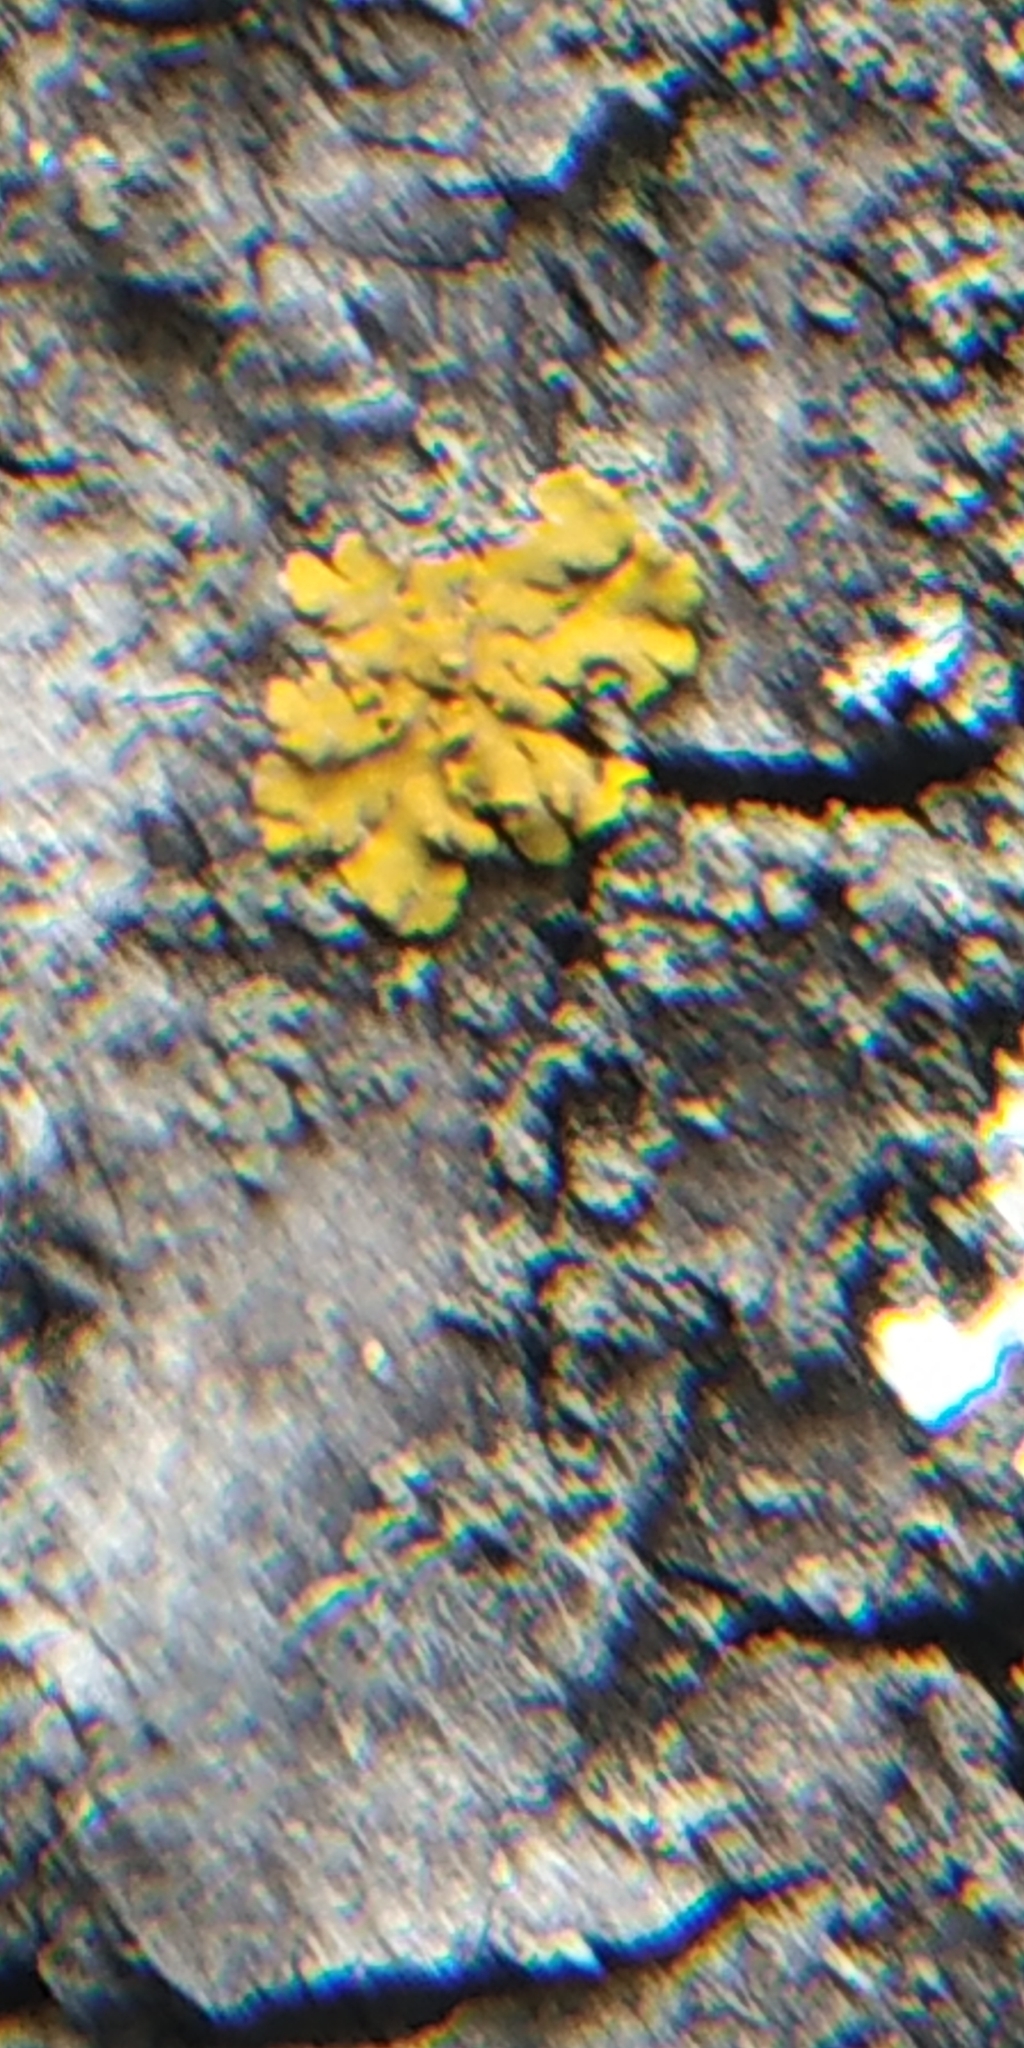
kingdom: Fungi
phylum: Ascomycota
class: Lecanoromycetes
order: Teloschistales
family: Teloschistaceae
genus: Xanthoria
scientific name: Xanthoria parietina
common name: Common orange lichen
